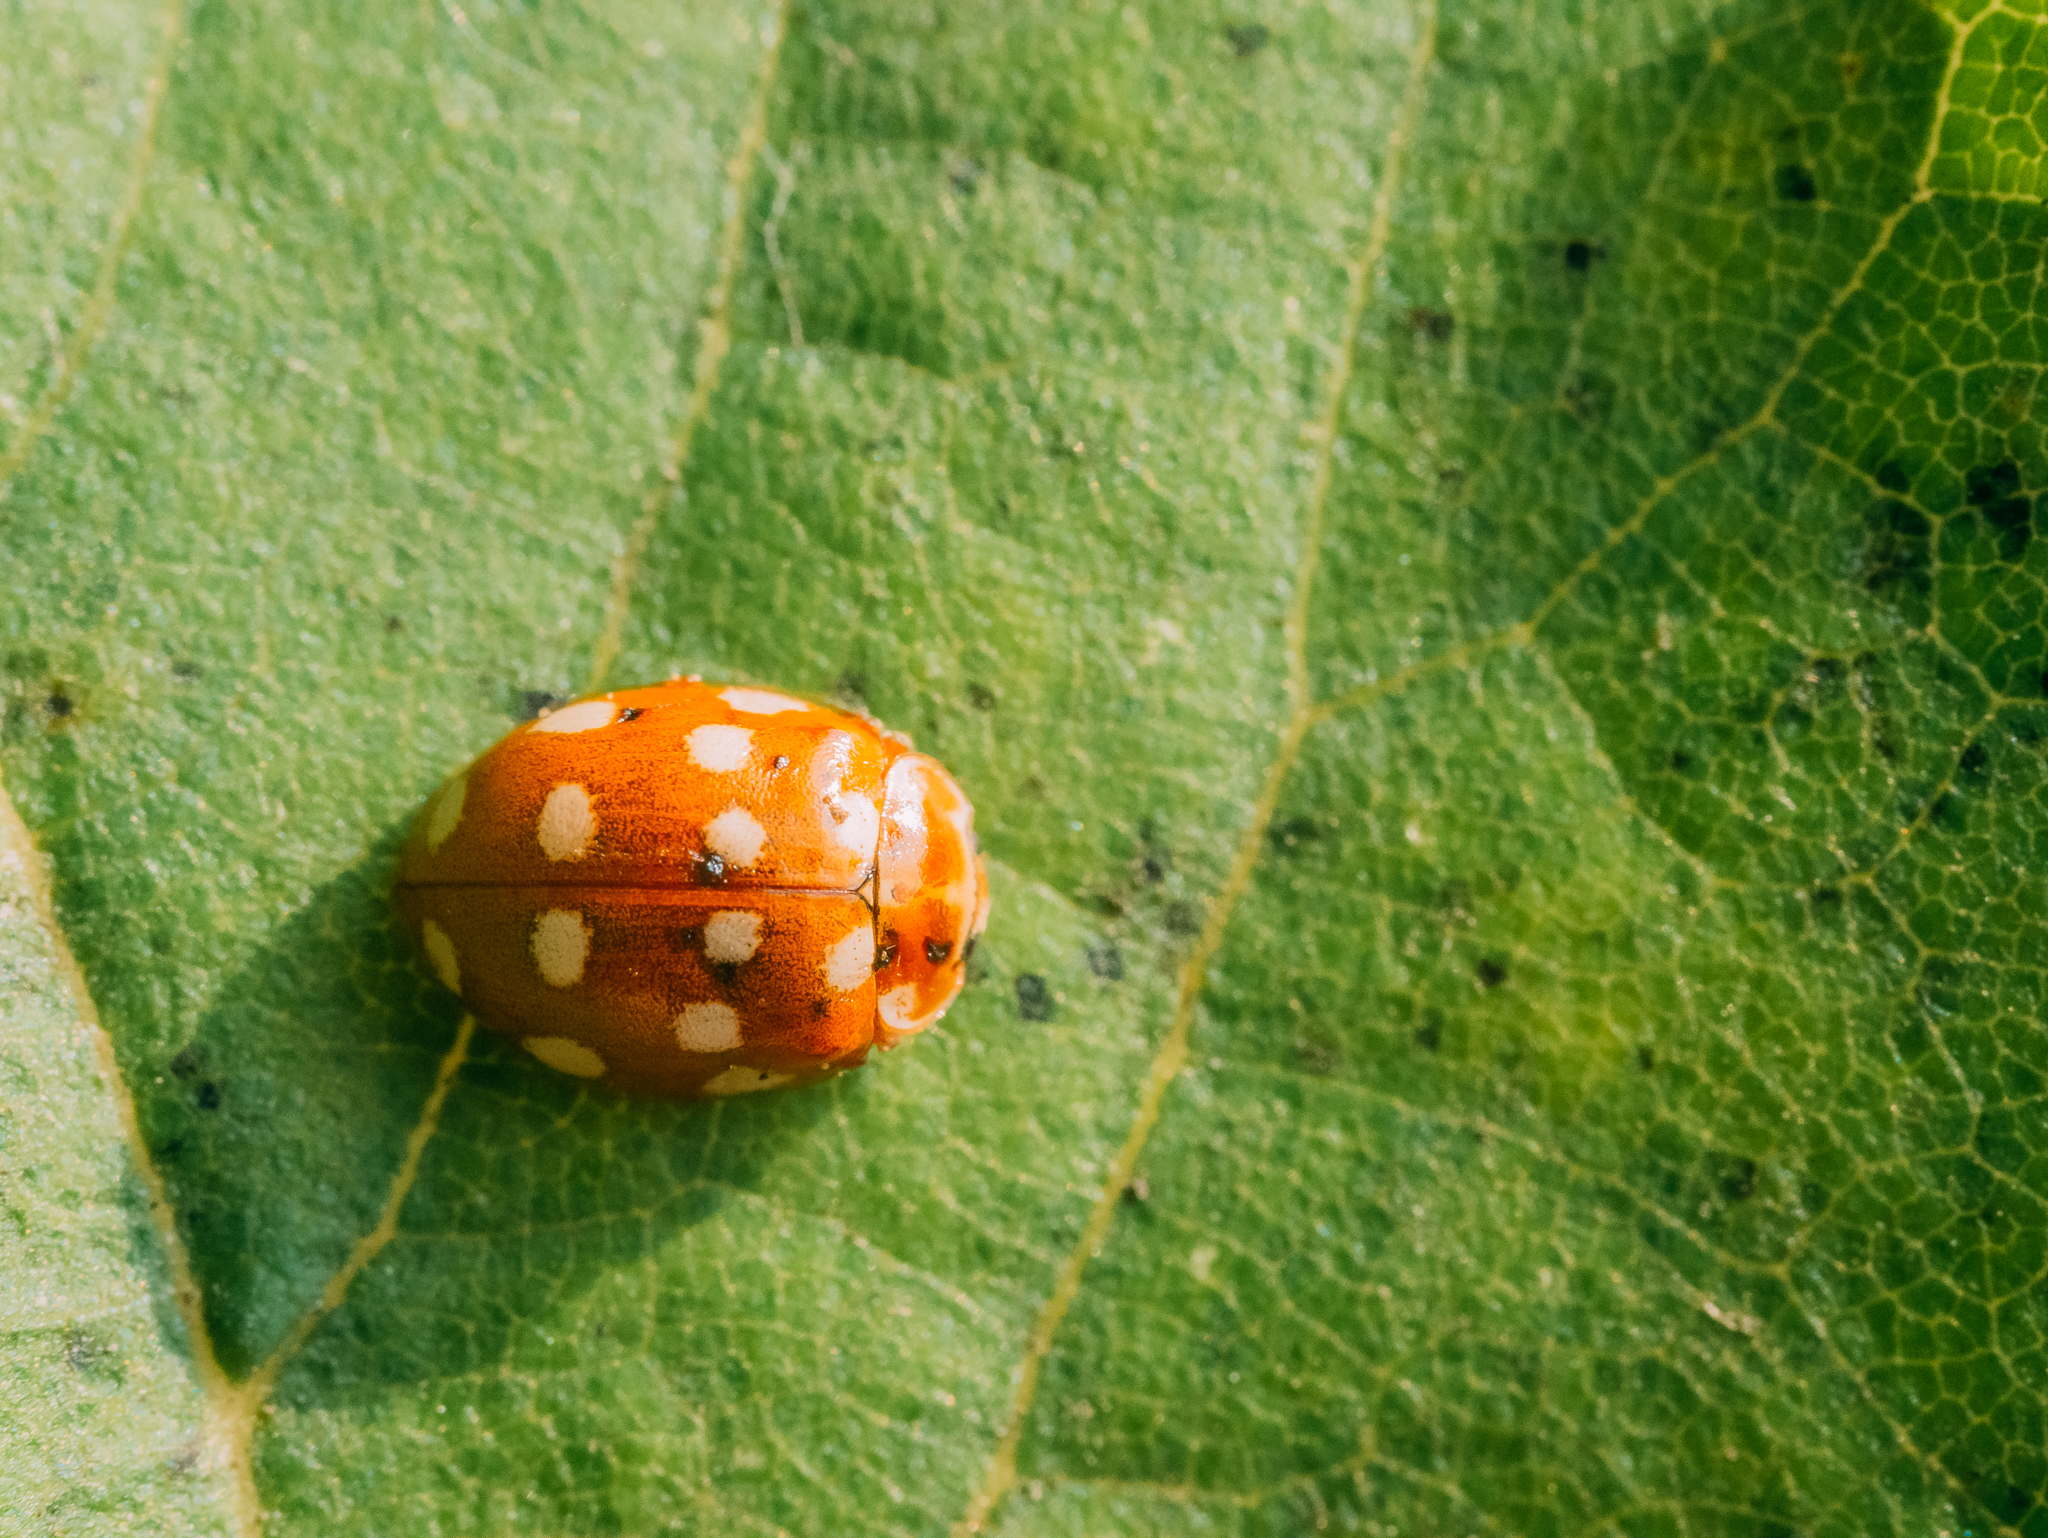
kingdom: Animalia
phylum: Arthropoda
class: Insecta
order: Coleoptera
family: Coccinellidae
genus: Calvia
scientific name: Calvia quatuordecimguttata
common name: Cream-spot ladybird
